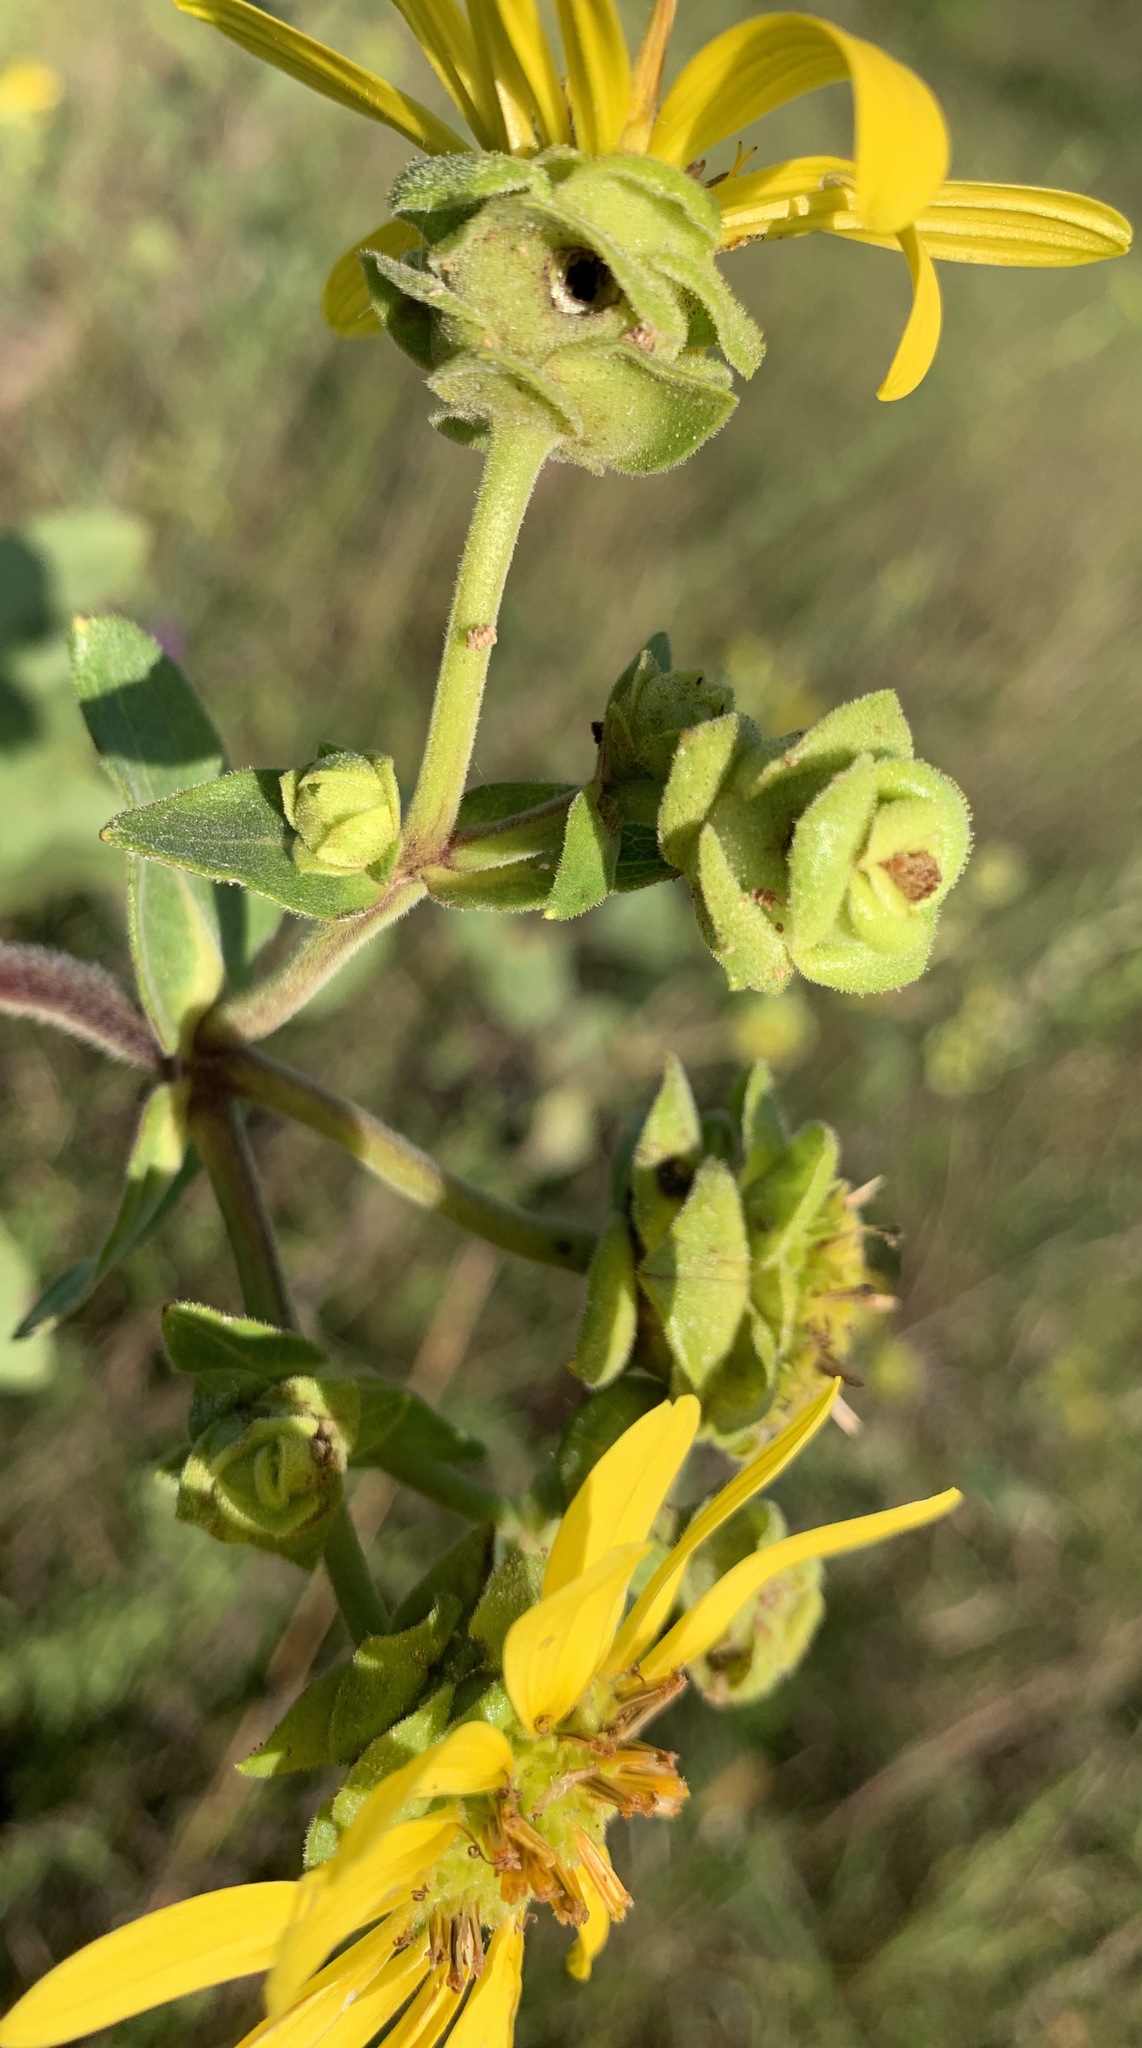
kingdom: Plantae
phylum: Tracheophyta
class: Magnoliopsida
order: Asterales
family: Asteraceae
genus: Silphium
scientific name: Silphium integrifolium
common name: Whole-leaf rosinweed
